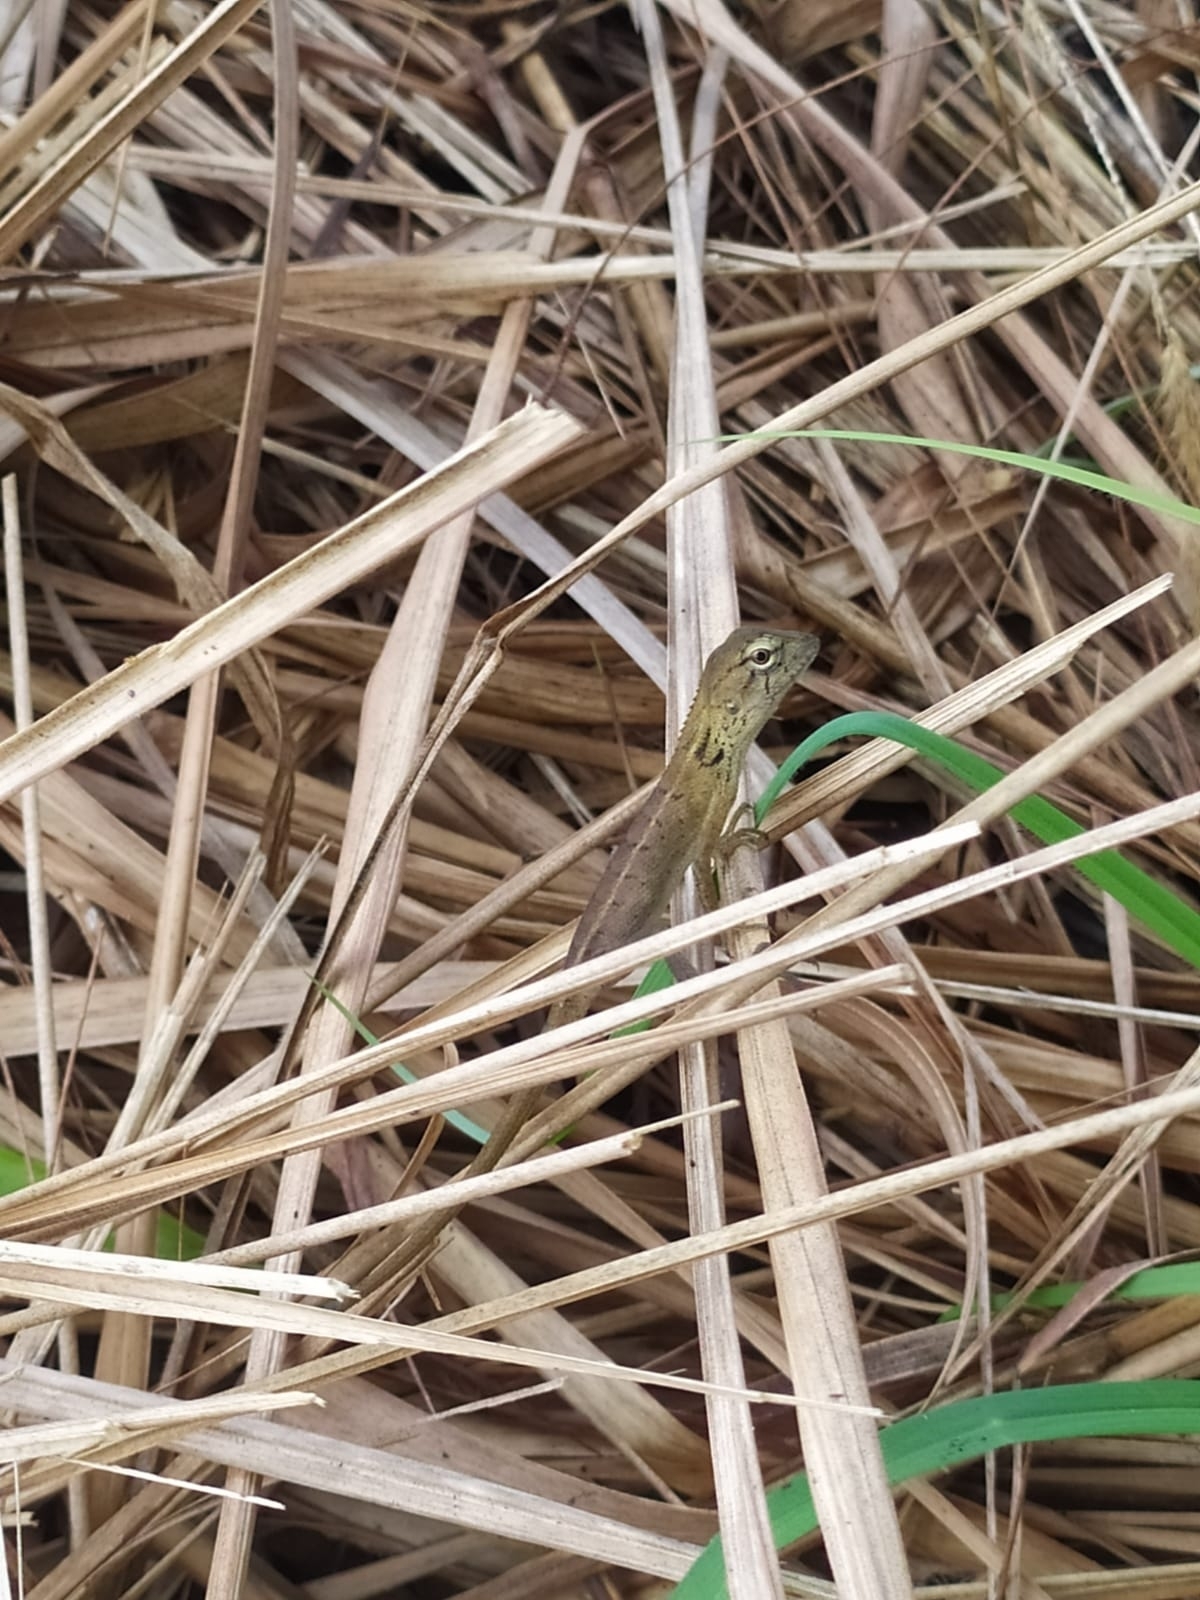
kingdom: Animalia
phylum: Chordata
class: Squamata
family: Agamidae
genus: Calotes
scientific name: Calotes versicolor
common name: Oriental garden lizard
